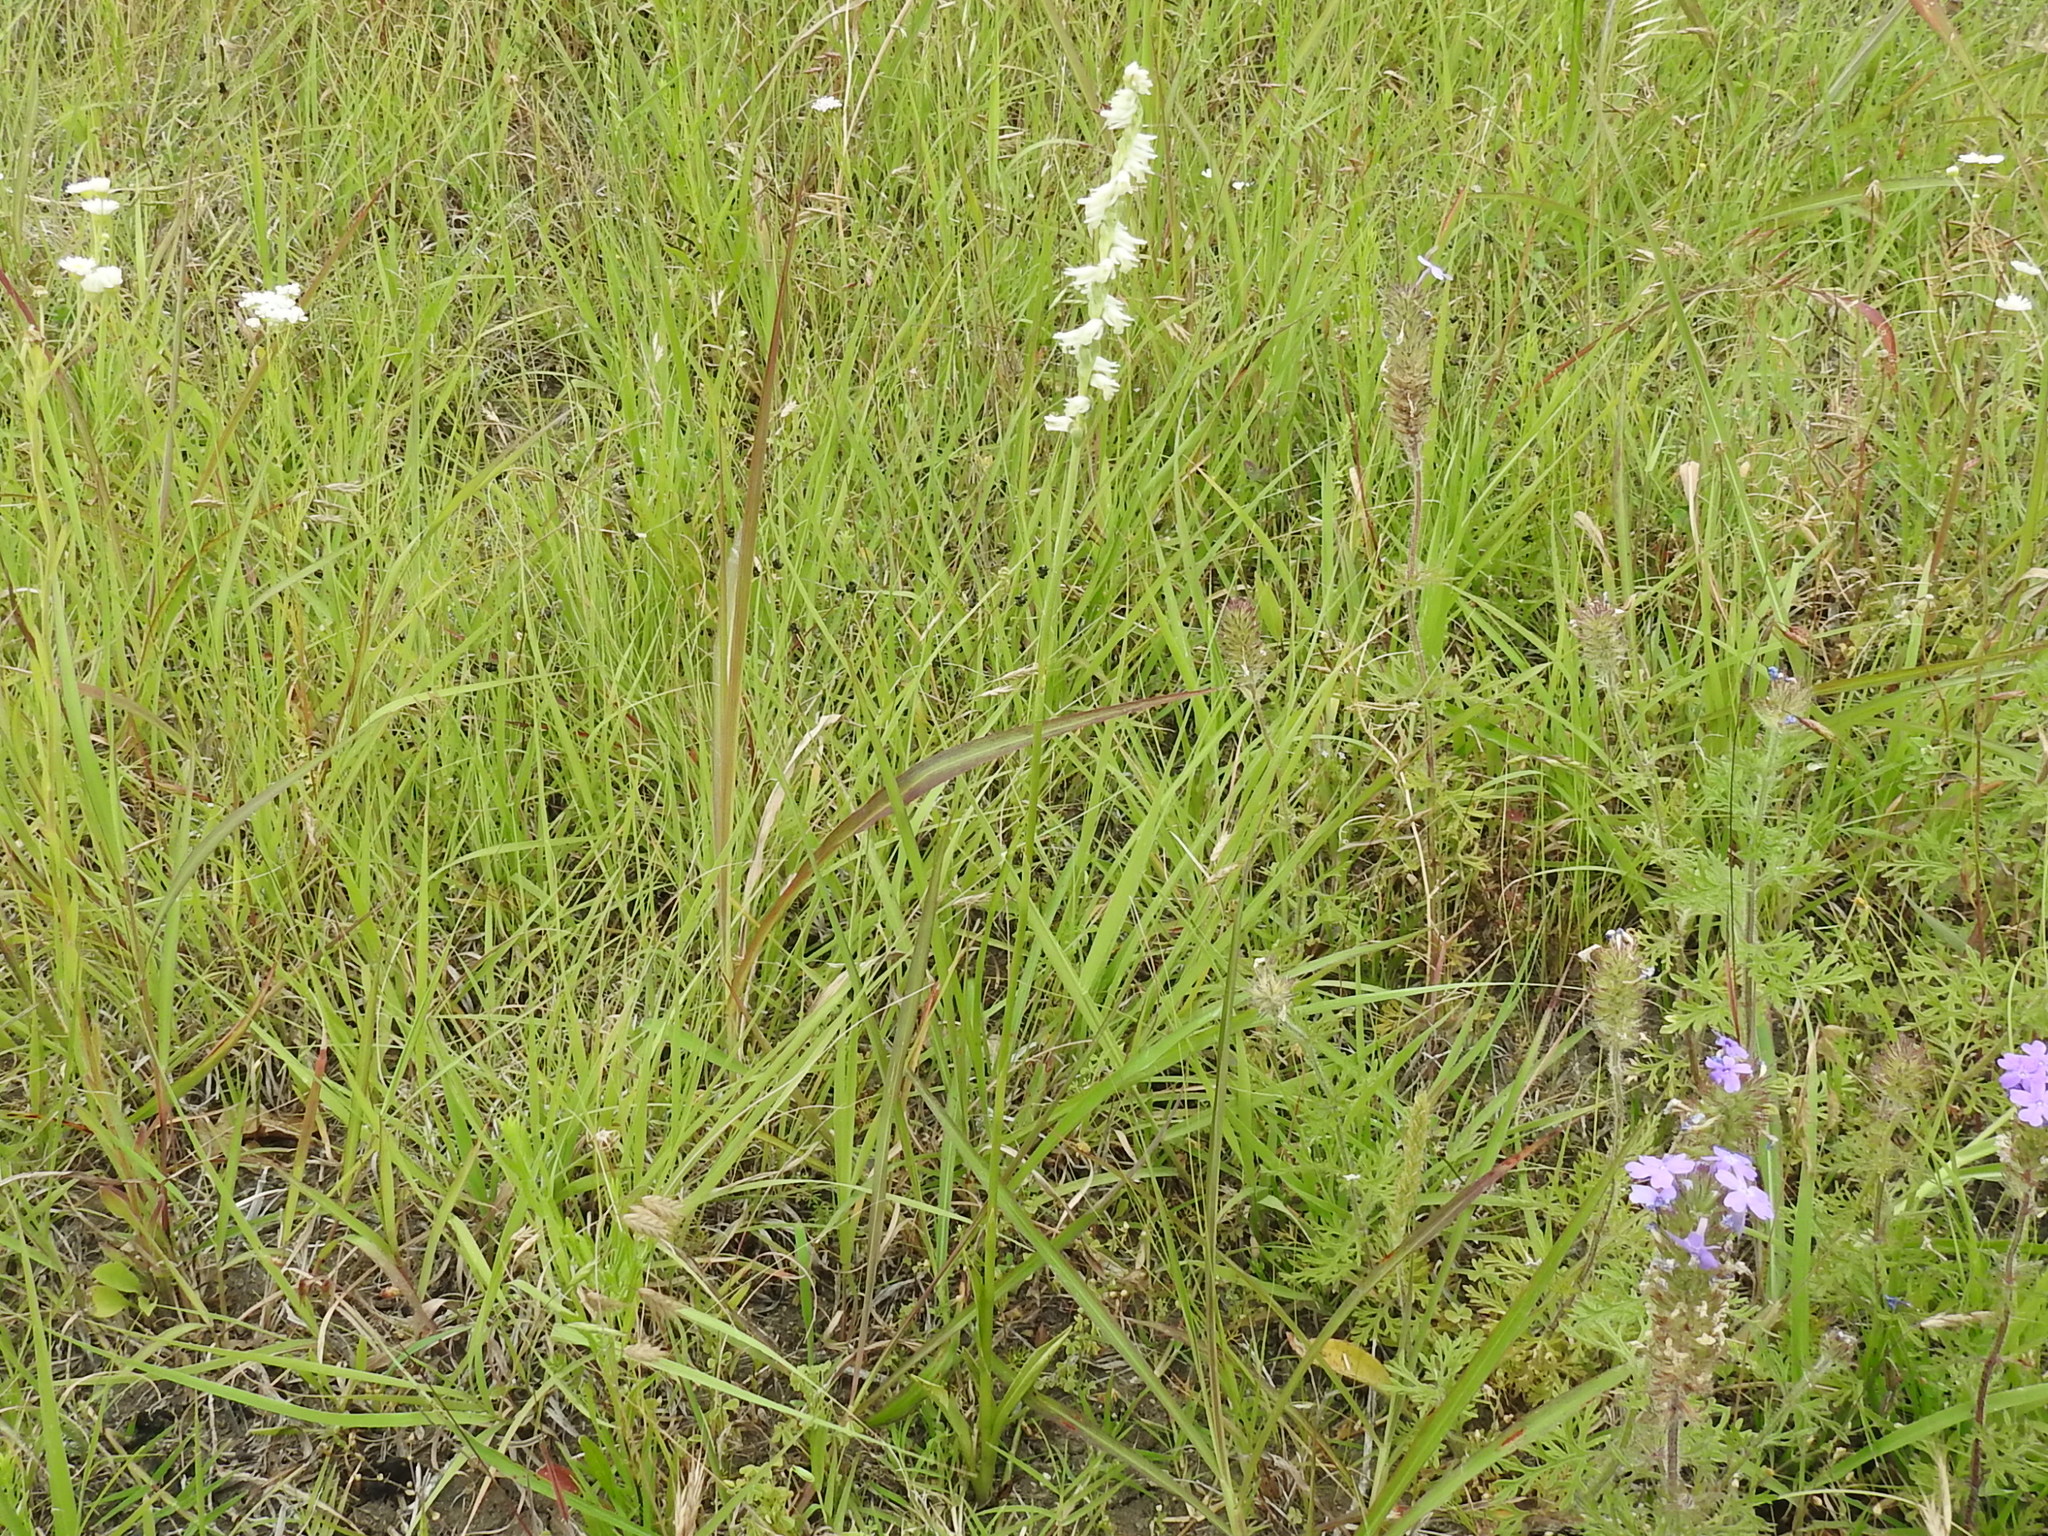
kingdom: Plantae
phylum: Tracheophyta
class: Liliopsida
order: Asparagales
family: Orchidaceae
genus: Spiranthes
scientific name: Spiranthes vernalis
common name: Spring ladies'-tresses
